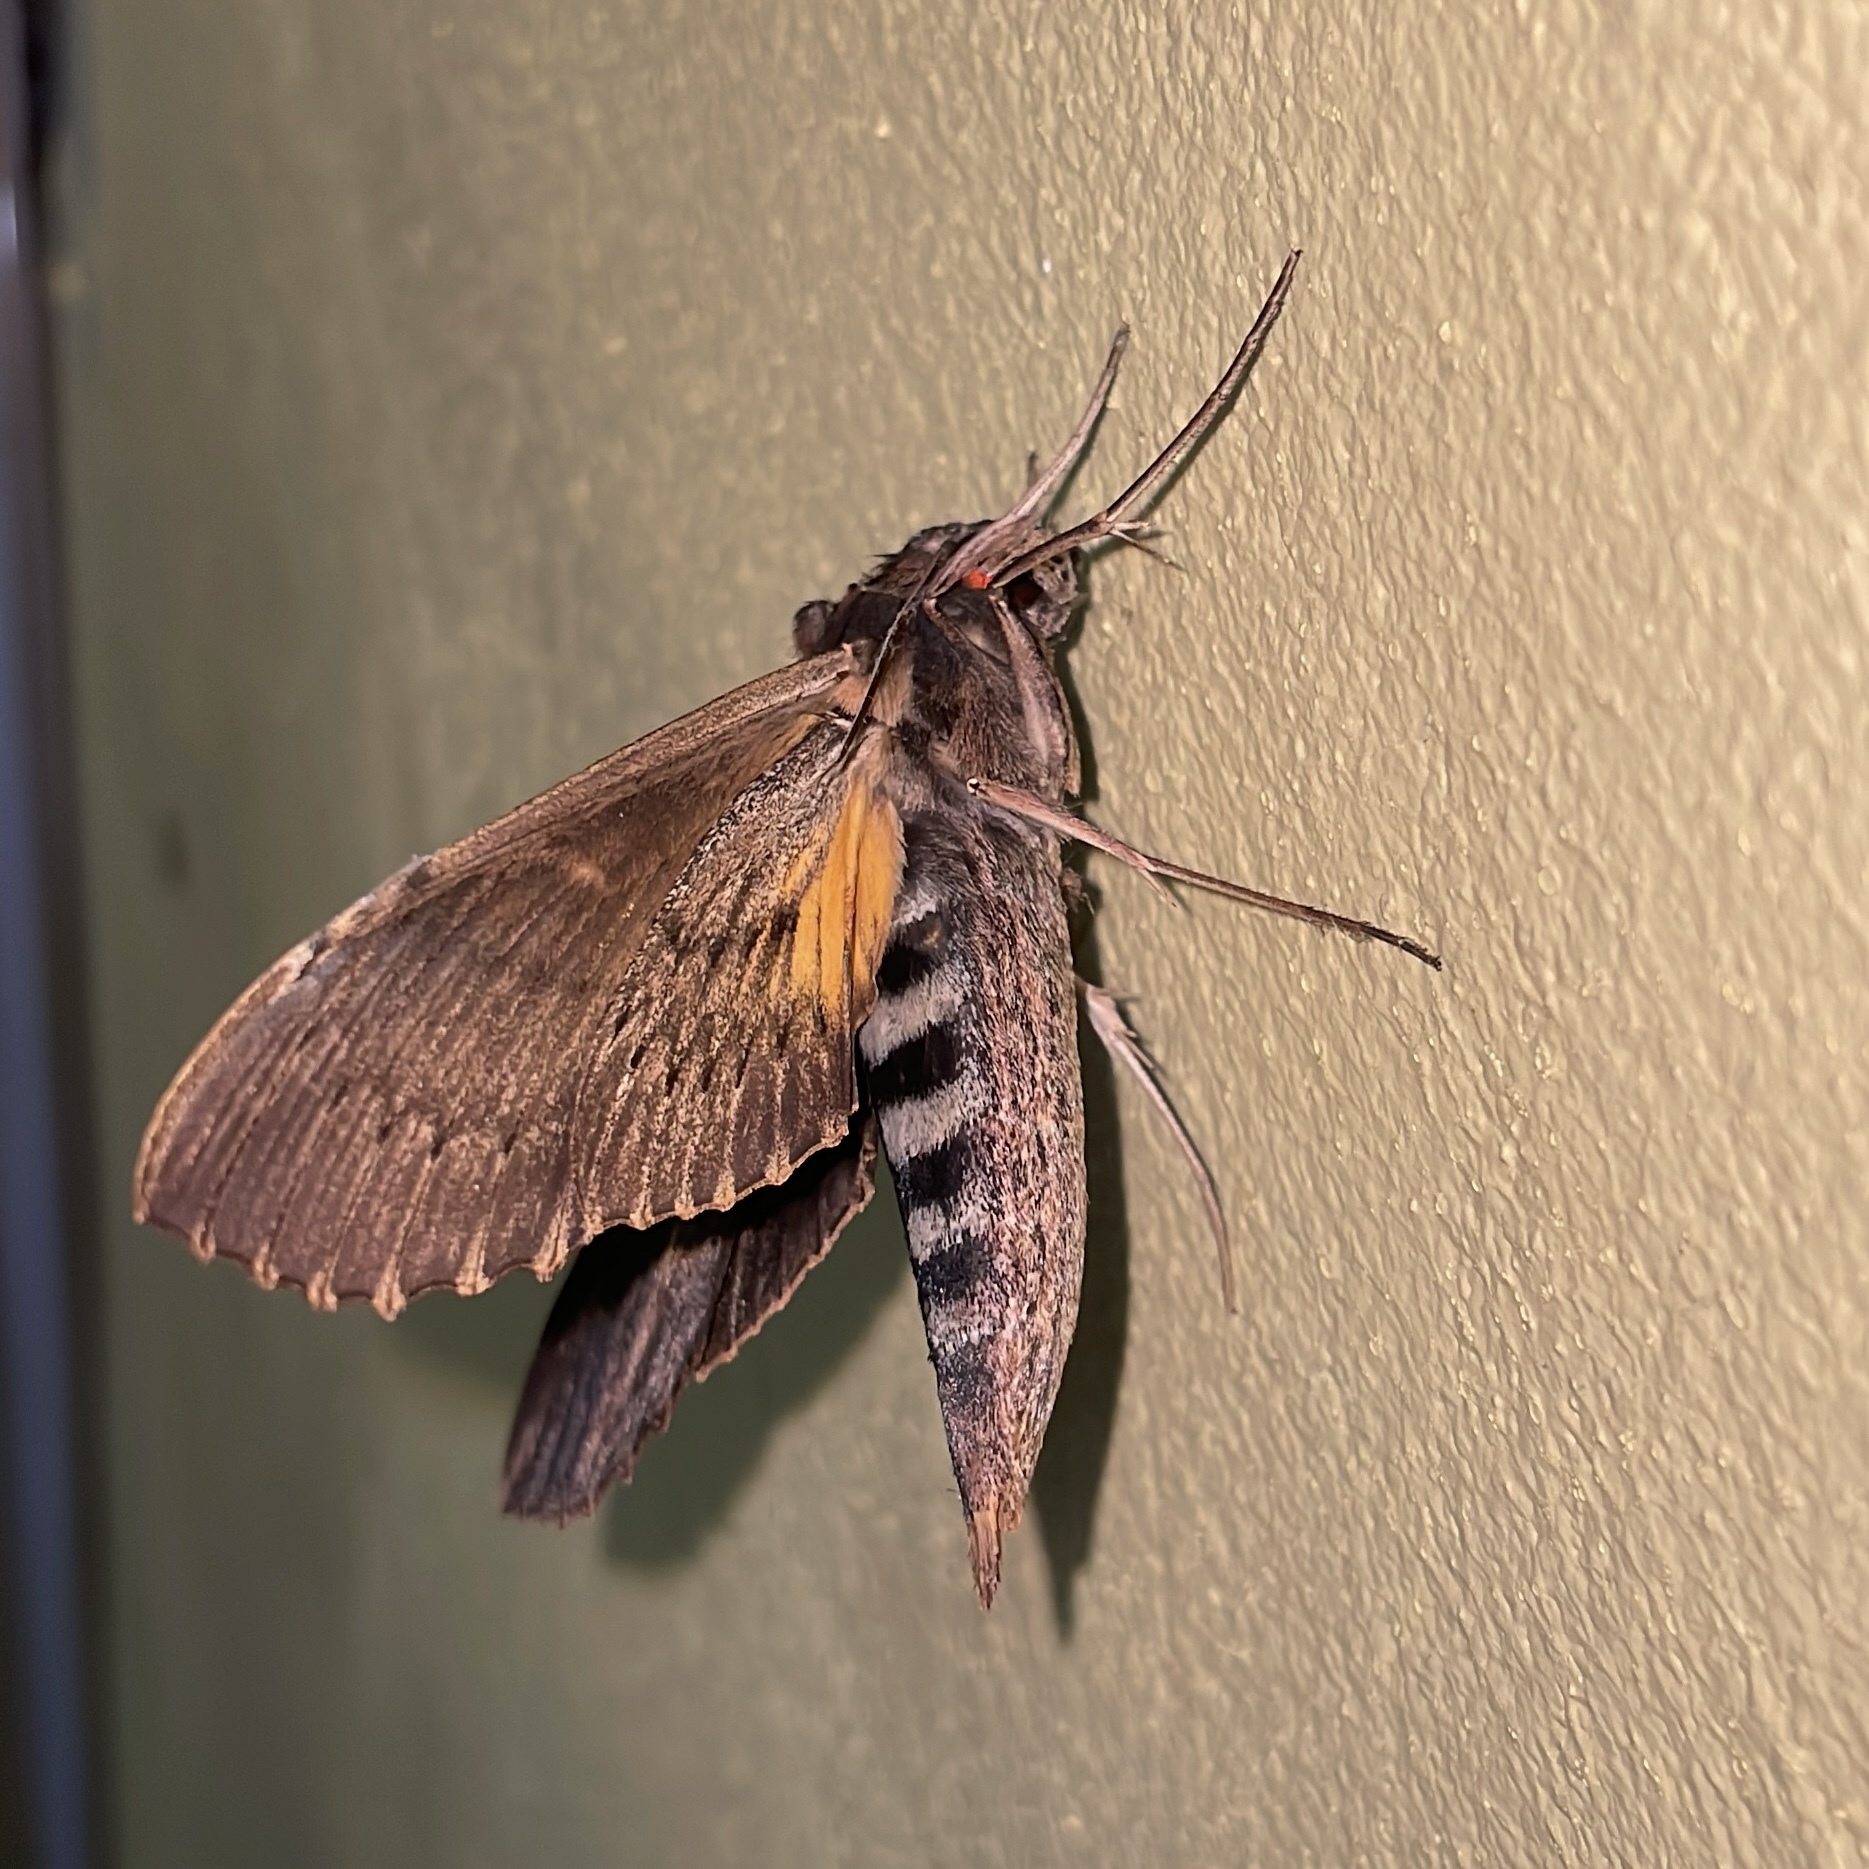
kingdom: Animalia
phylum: Arthropoda
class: Insecta
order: Lepidoptera
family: Sphingidae
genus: Erinnyis
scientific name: Erinnyis alope
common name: Alope sphinx
